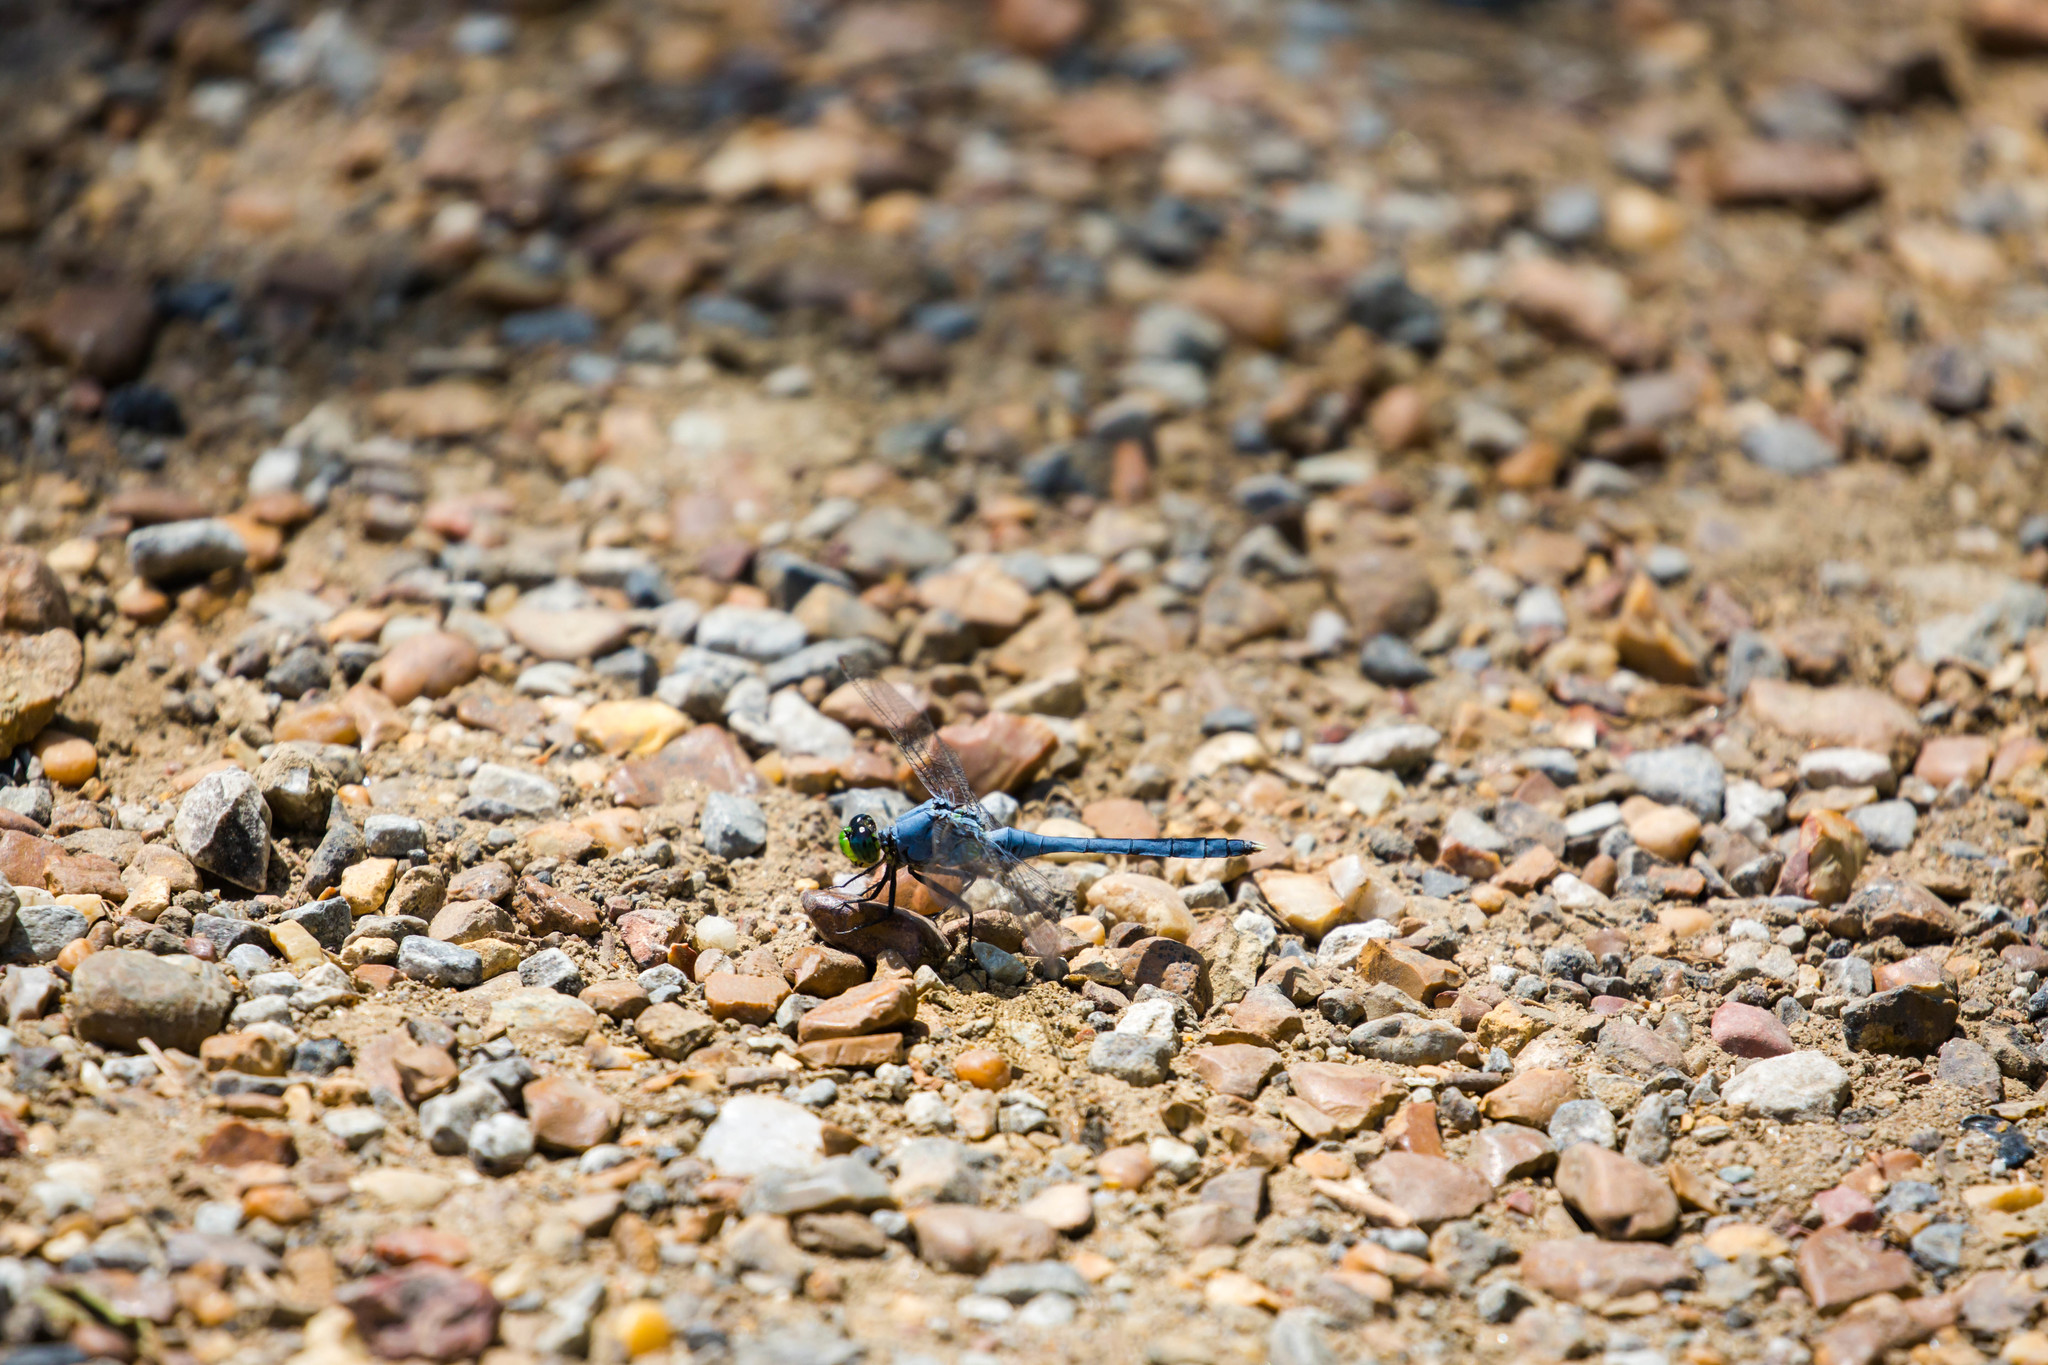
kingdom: Animalia
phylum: Arthropoda
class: Insecta
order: Odonata
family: Libellulidae
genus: Erythemis
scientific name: Erythemis simplicicollis
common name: Eastern pondhawk
